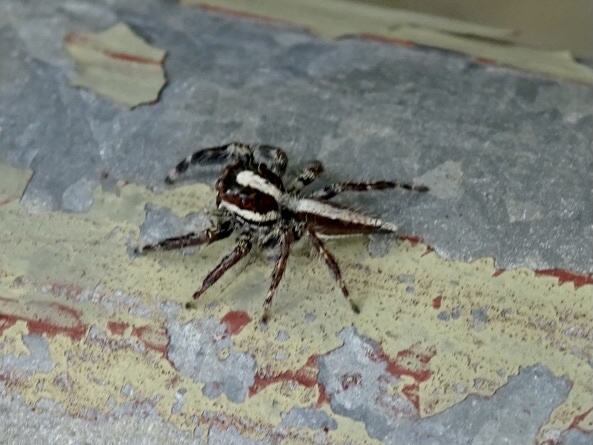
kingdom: Animalia
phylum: Arthropoda
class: Arachnida
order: Araneae
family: Salticidae
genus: Pancorius
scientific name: Pancorius crassipes
